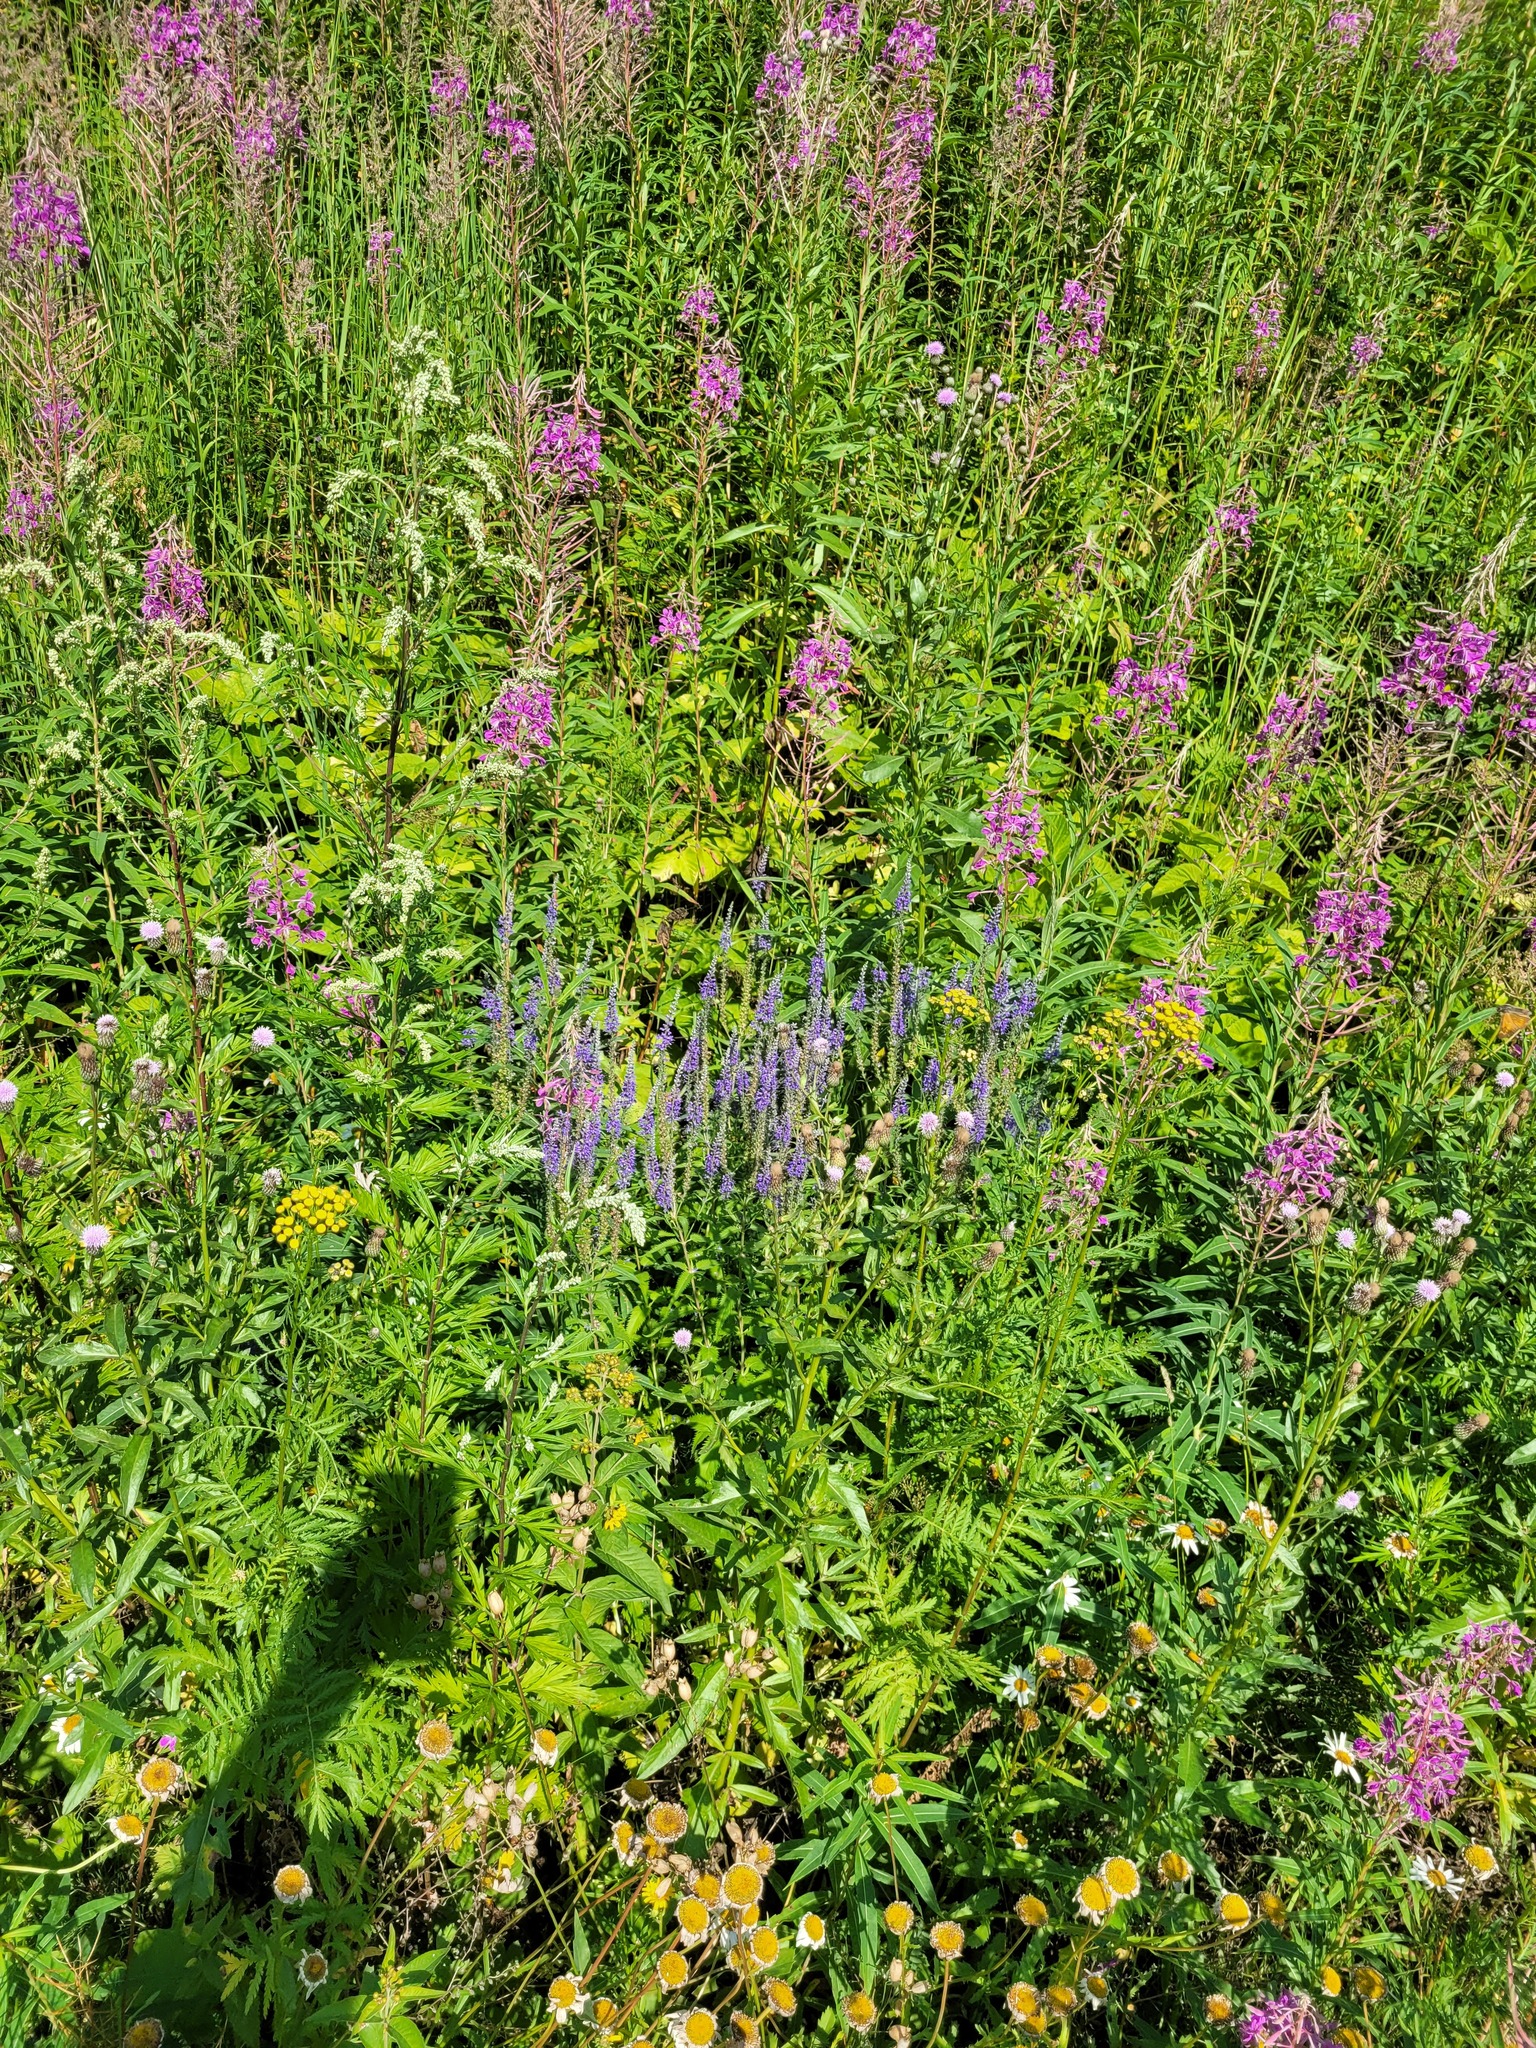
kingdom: Plantae
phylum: Tracheophyta
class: Magnoliopsida
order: Lamiales
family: Plantaginaceae
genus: Veronica
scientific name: Veronica longifolia
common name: Garden speedwell
